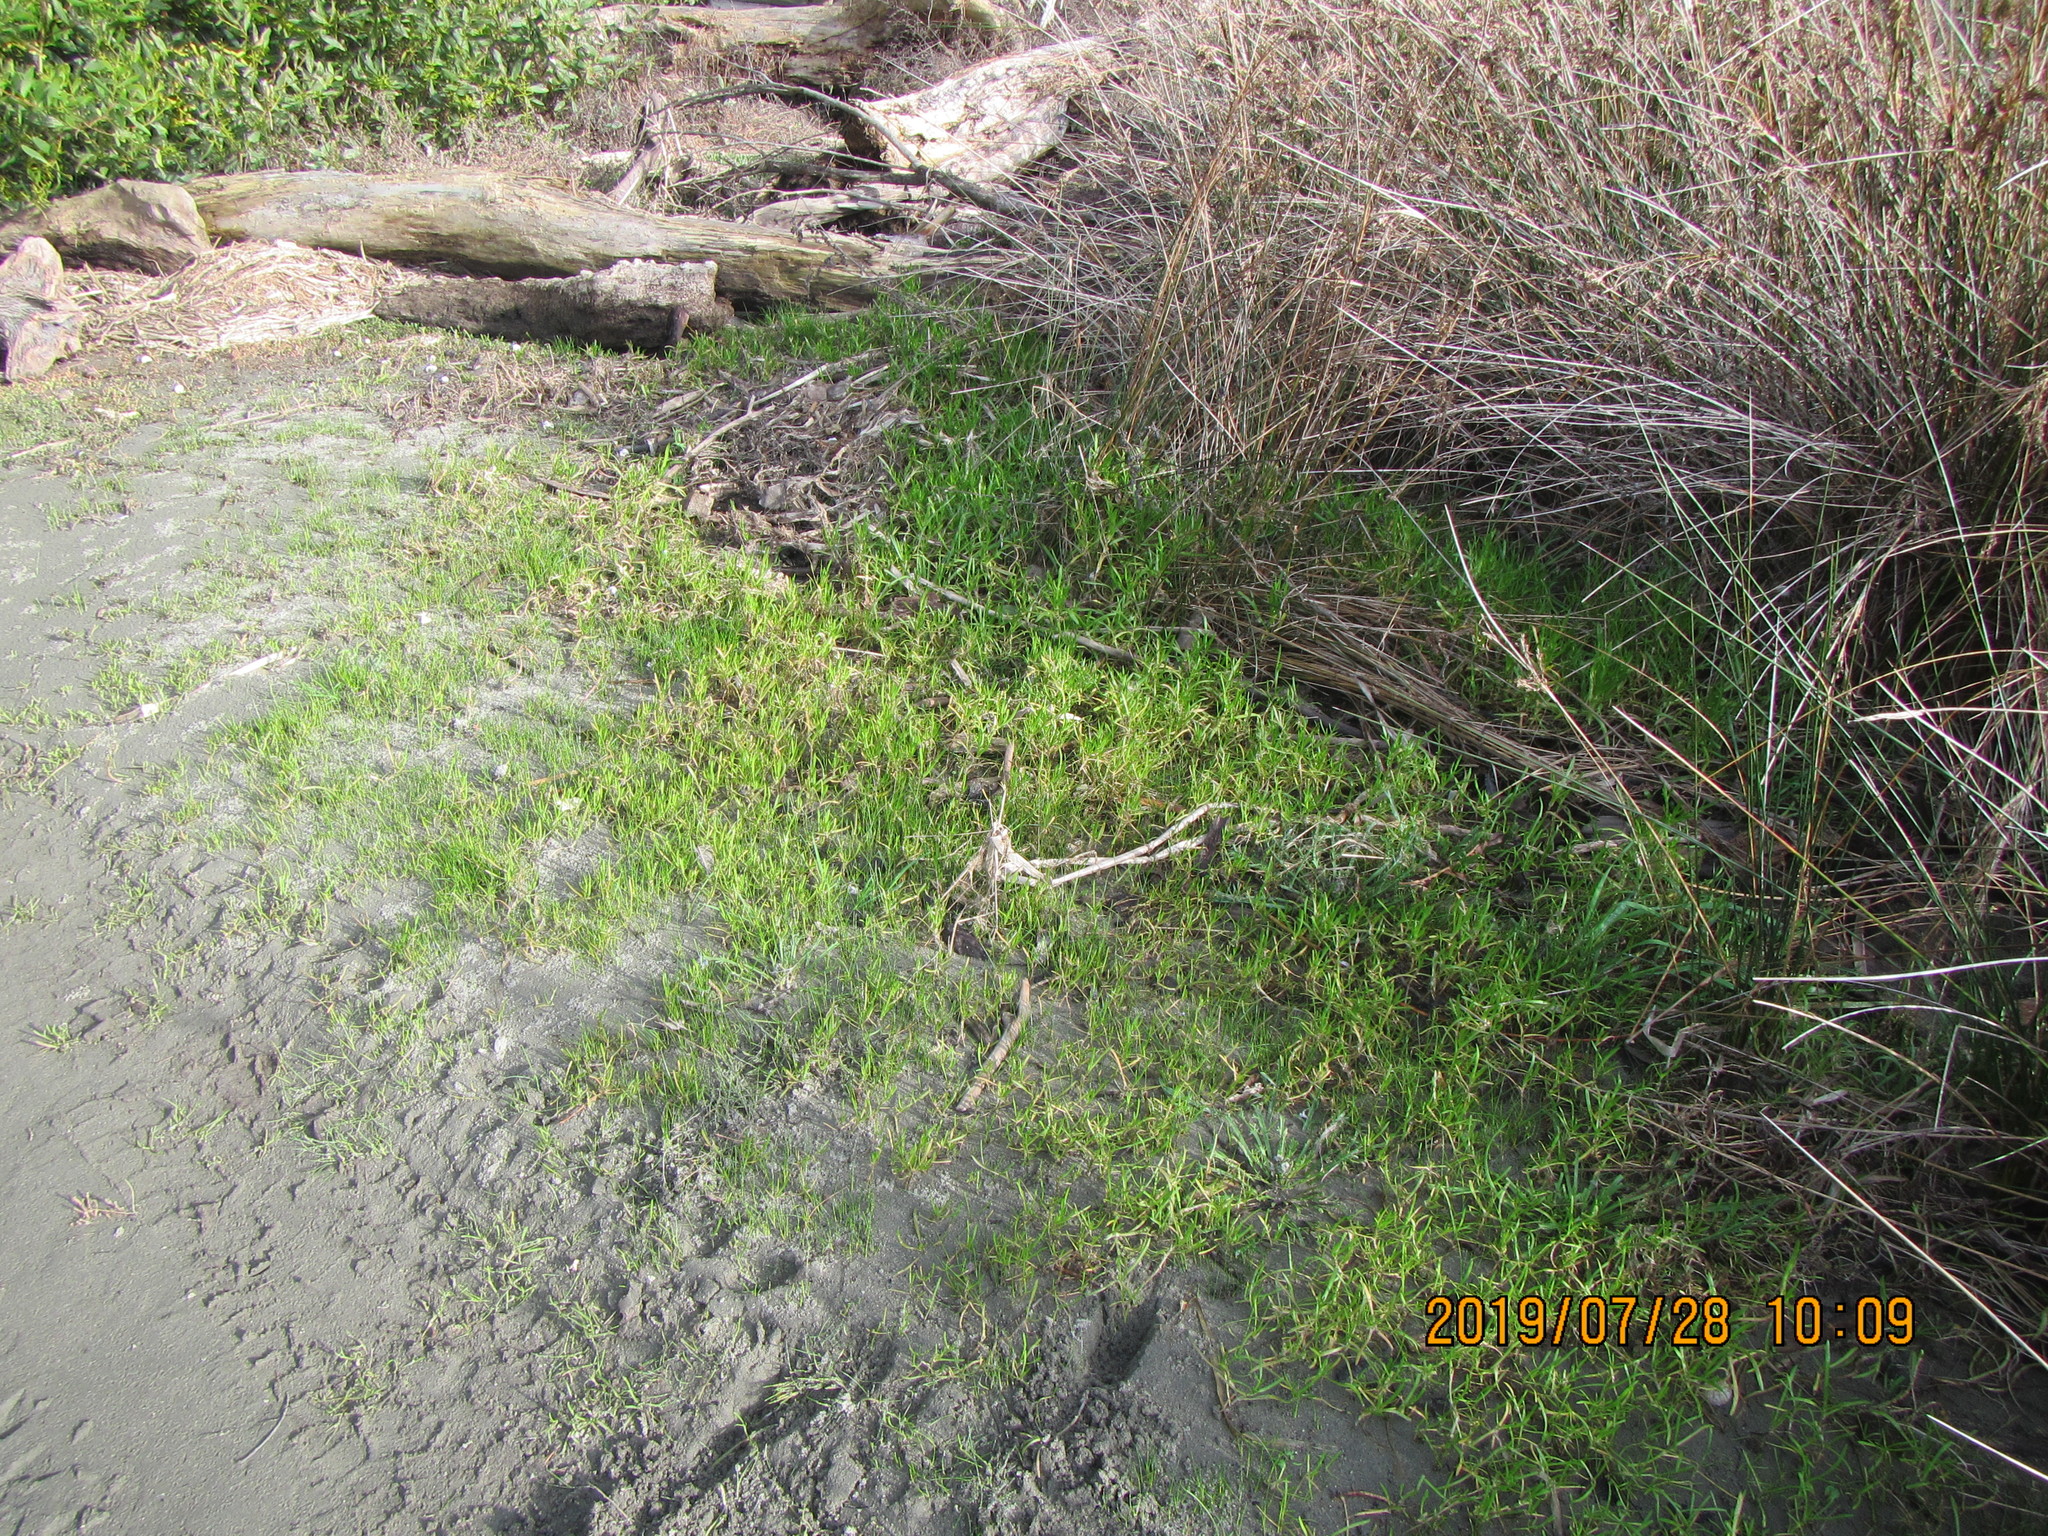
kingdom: Plantae
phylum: Tracheophyta
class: Magnoliopsida
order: Asterales
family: Asteraceae
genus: Cotula
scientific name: Cotula coronopifolia
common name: Buttonweed
